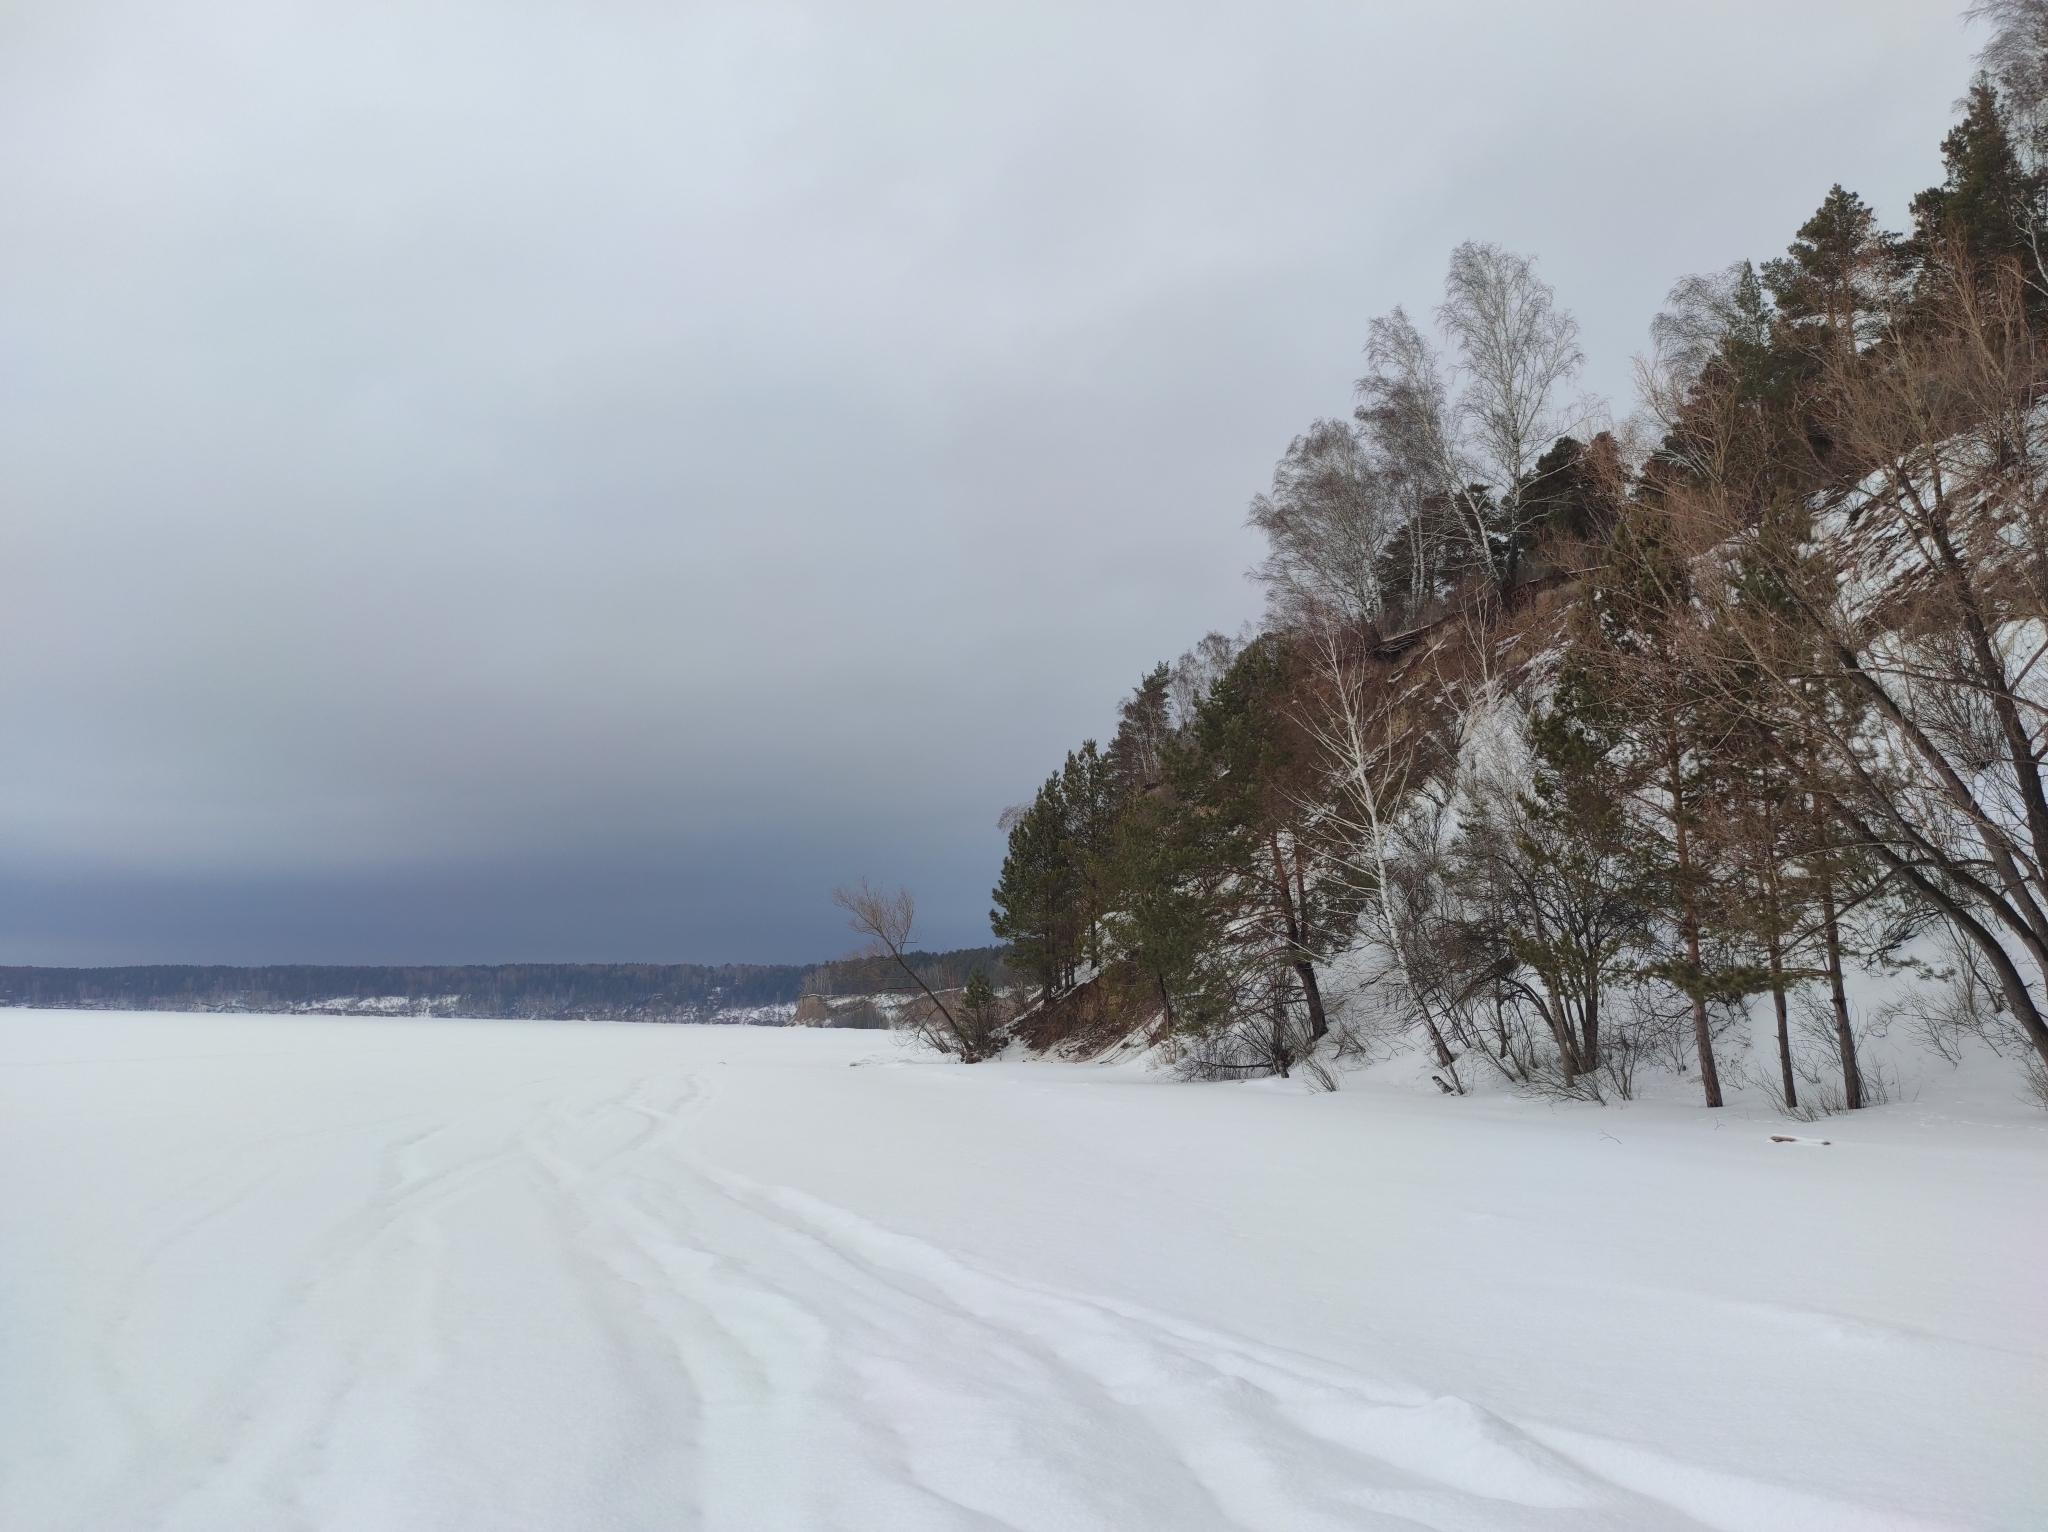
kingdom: Plantae
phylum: Tracheophyta
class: Pinopsida
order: Pinales
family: Pinaceae
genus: Pinus
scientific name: Pinus sylvestris
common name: Scots pine
